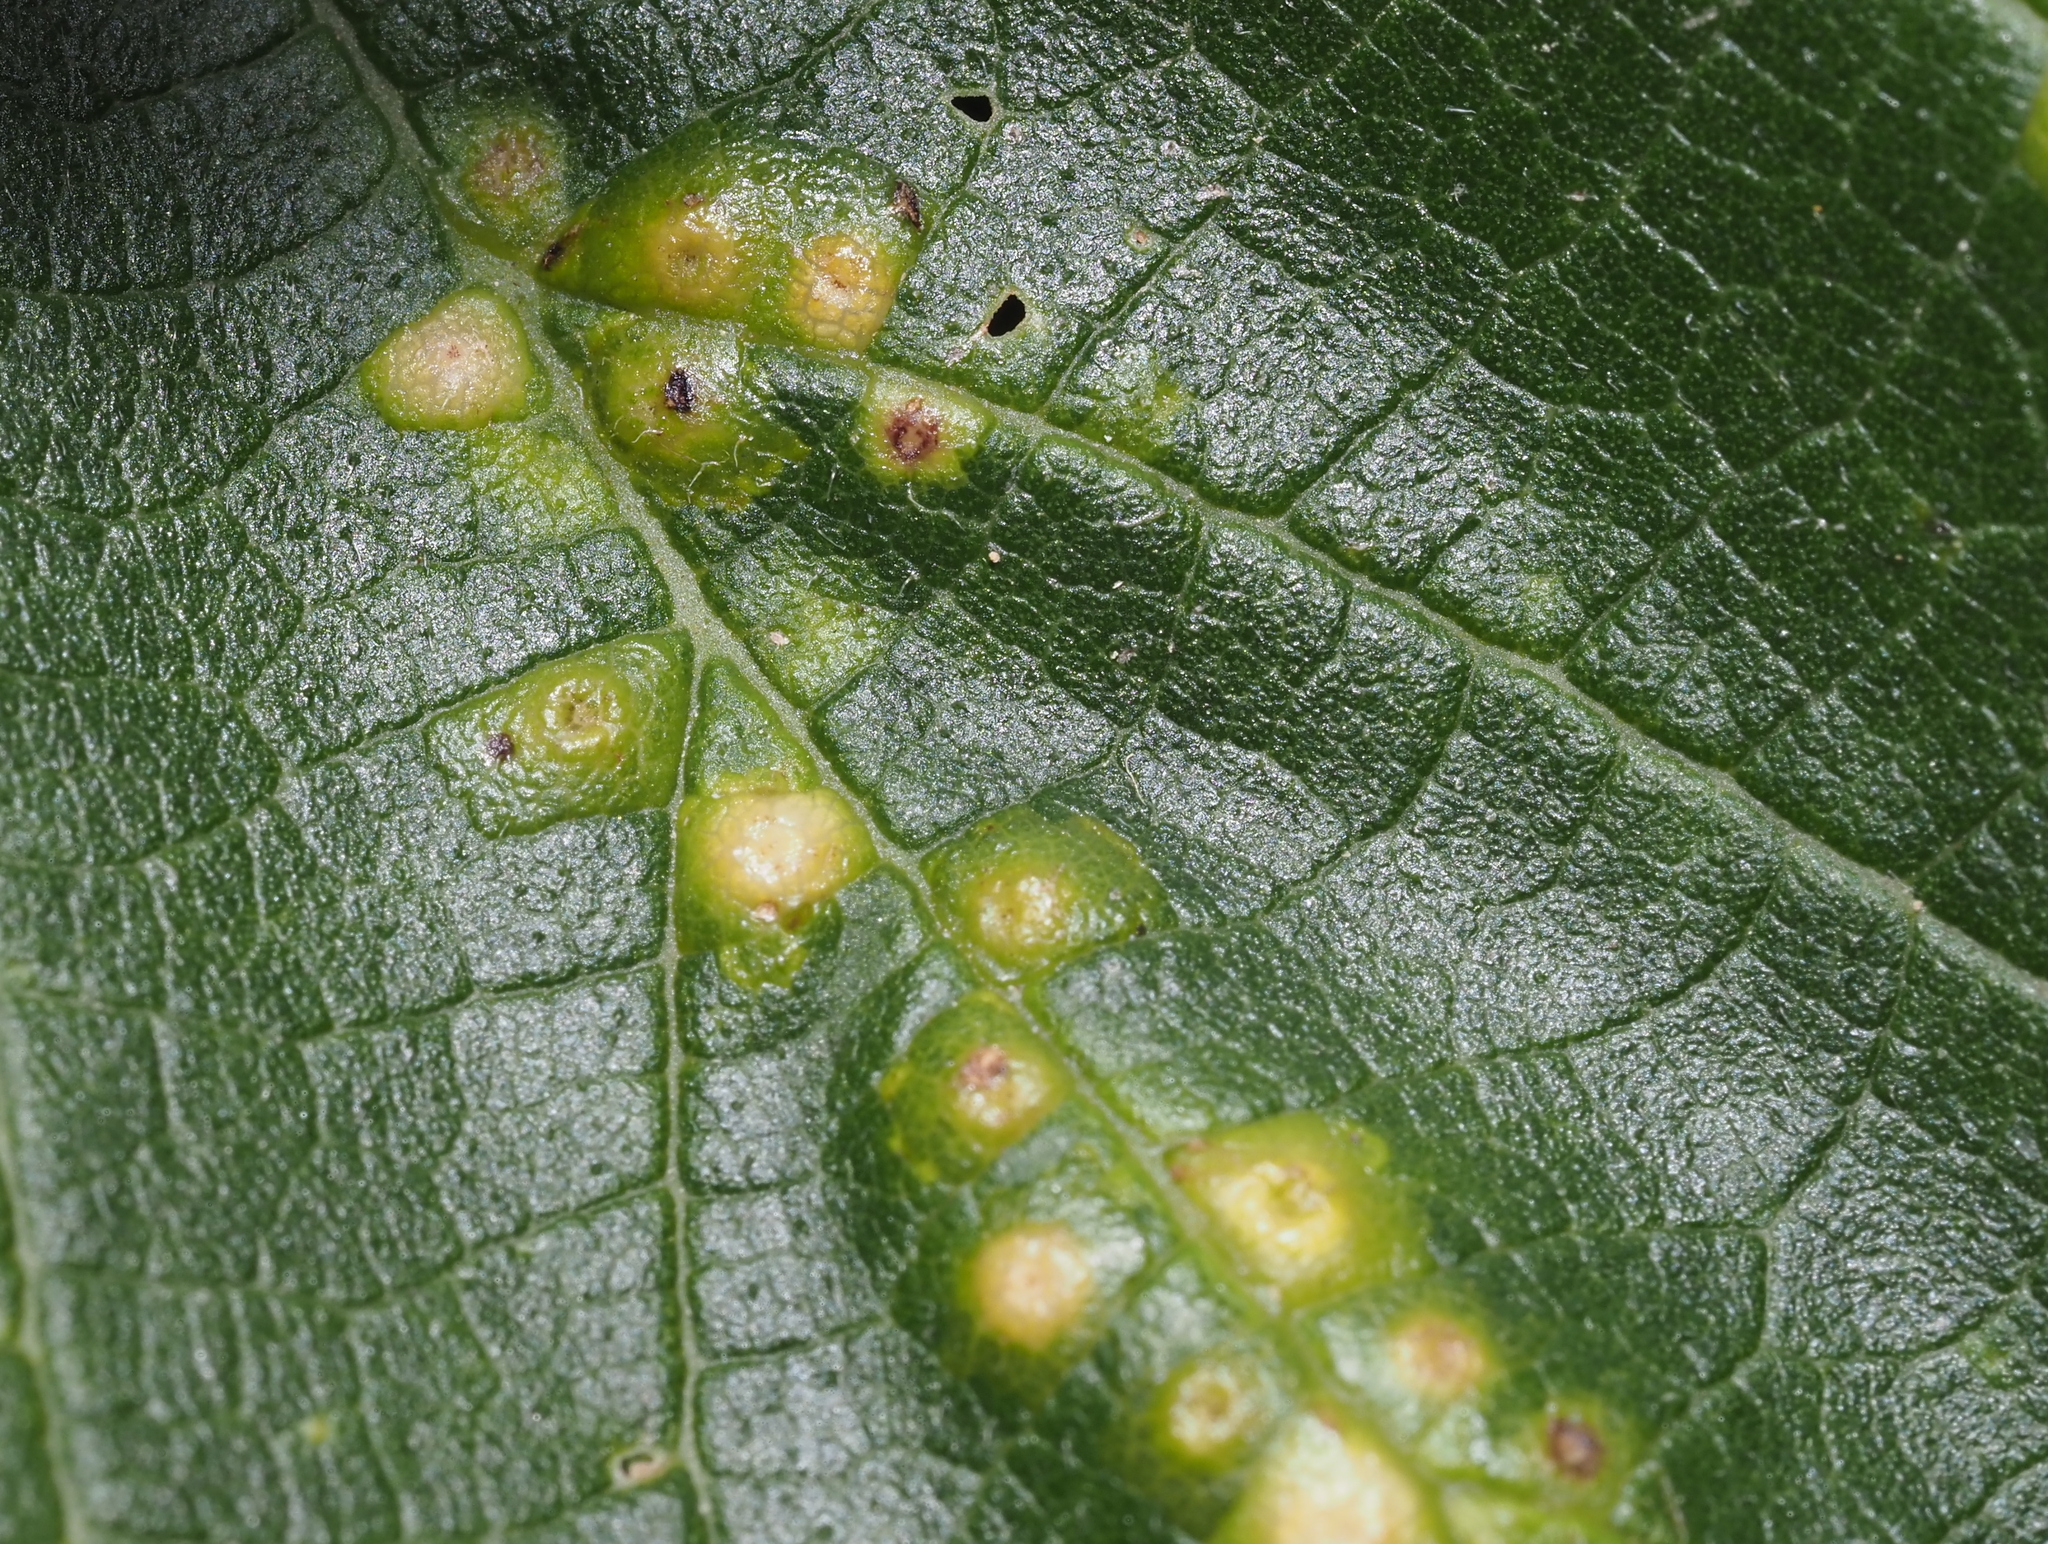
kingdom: Animalia
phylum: Arthropoda
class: Insecta
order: Hemiptera
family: Aphalaridae
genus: Pachypsylla
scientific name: Pachypsylla celtidisvesicula
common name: Hackberry blister gall psyllid
